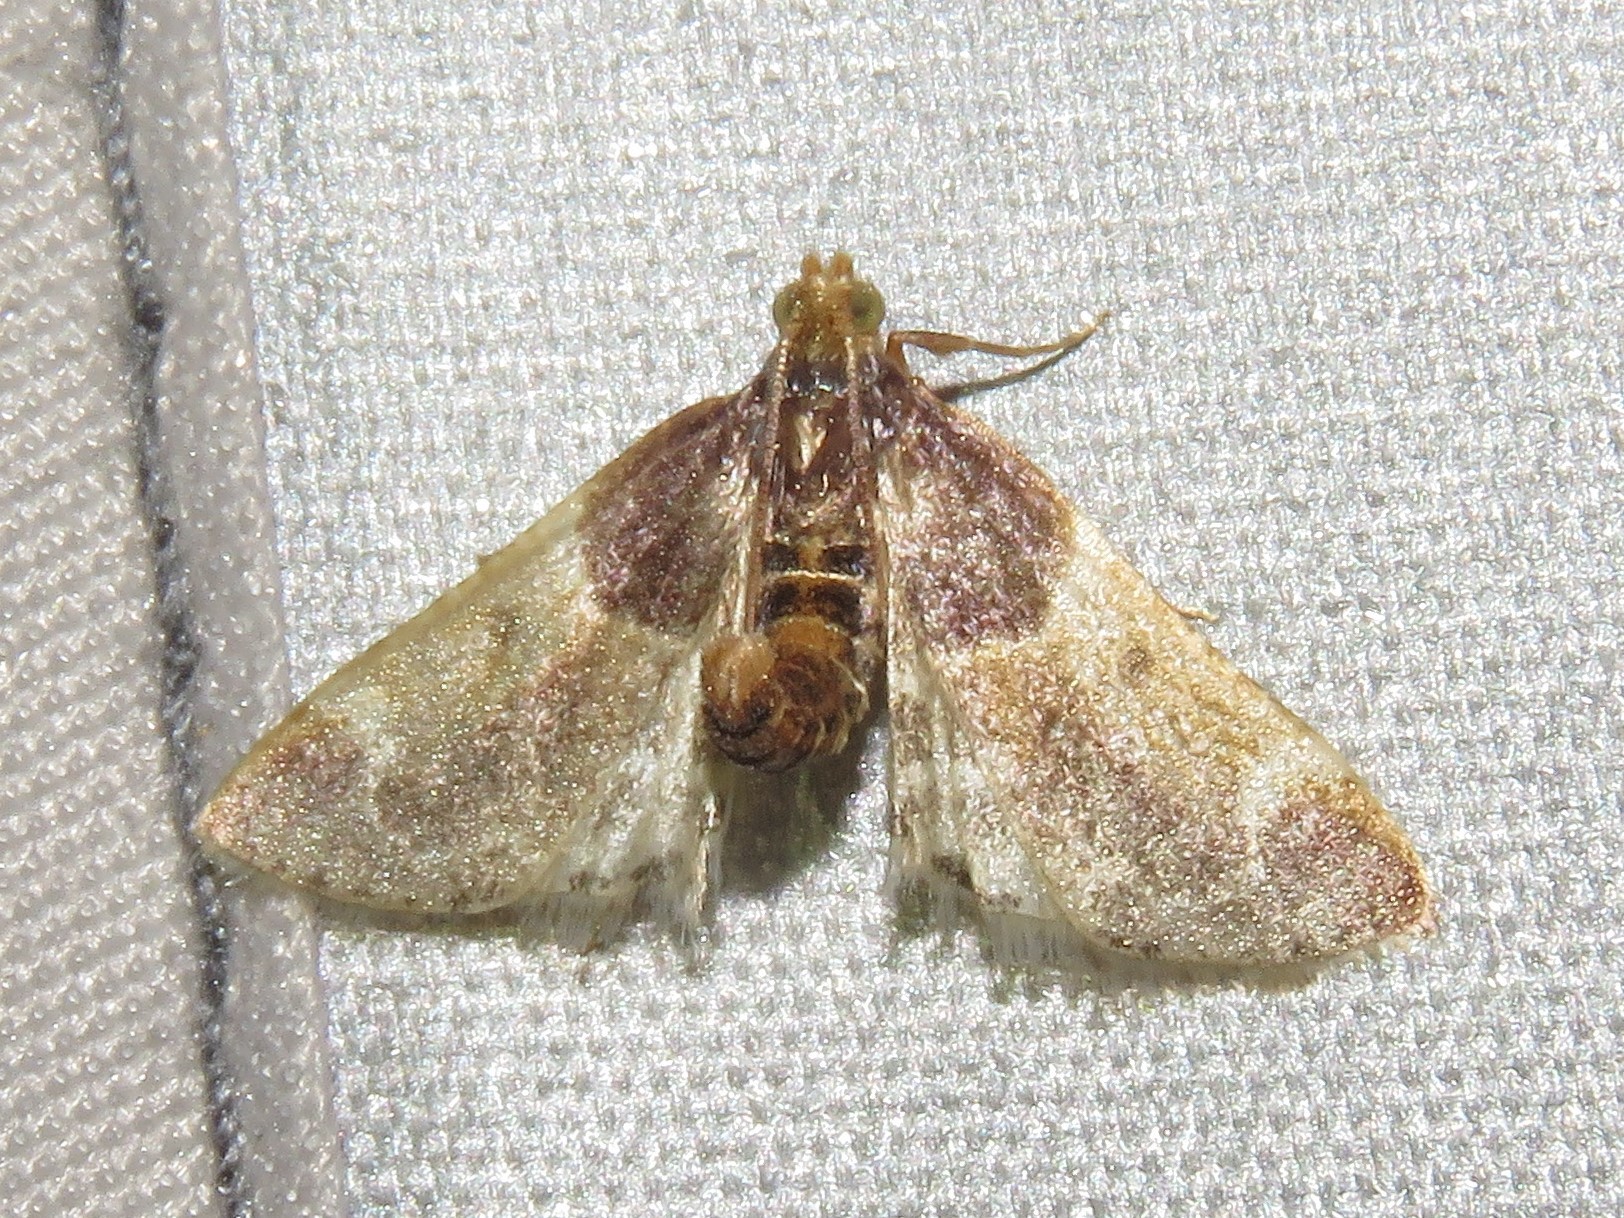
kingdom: Animalia
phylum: Arthropoda
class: Insecta
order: Lepidoptera
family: Pyralidae
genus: Pyralis
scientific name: Pyralis farinalis
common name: Meal moth
